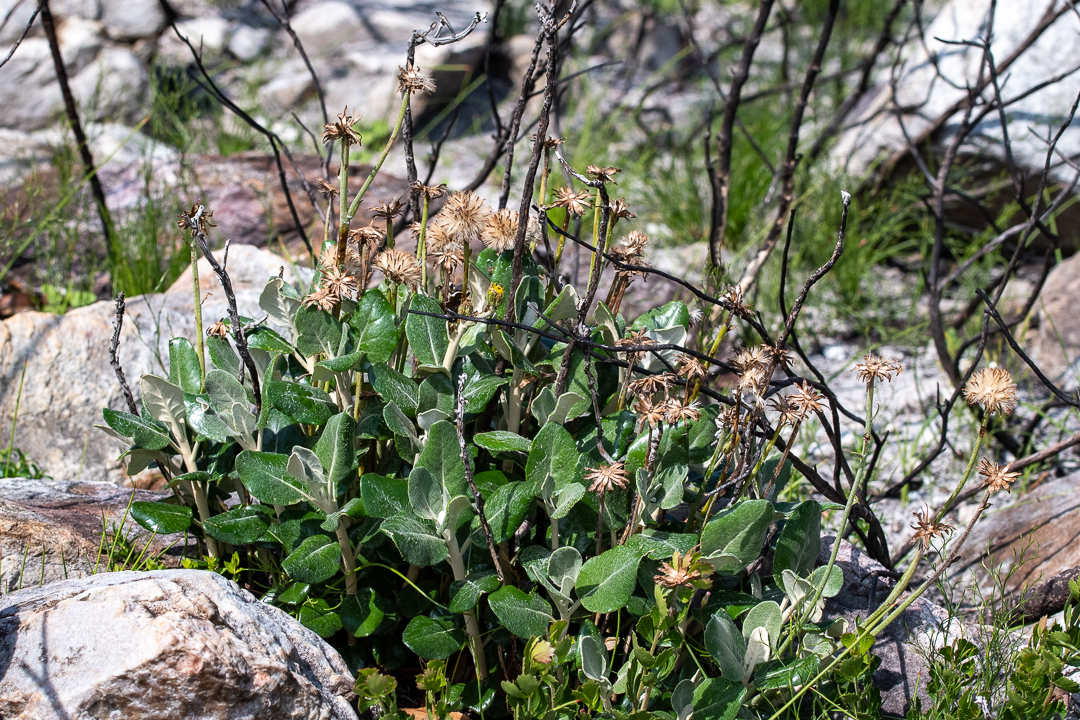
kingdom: Plantae
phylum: Tracheophyta
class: Magnoliopsida
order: Asterales
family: Asteraceae
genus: Capelio
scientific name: Capelio tabularis
